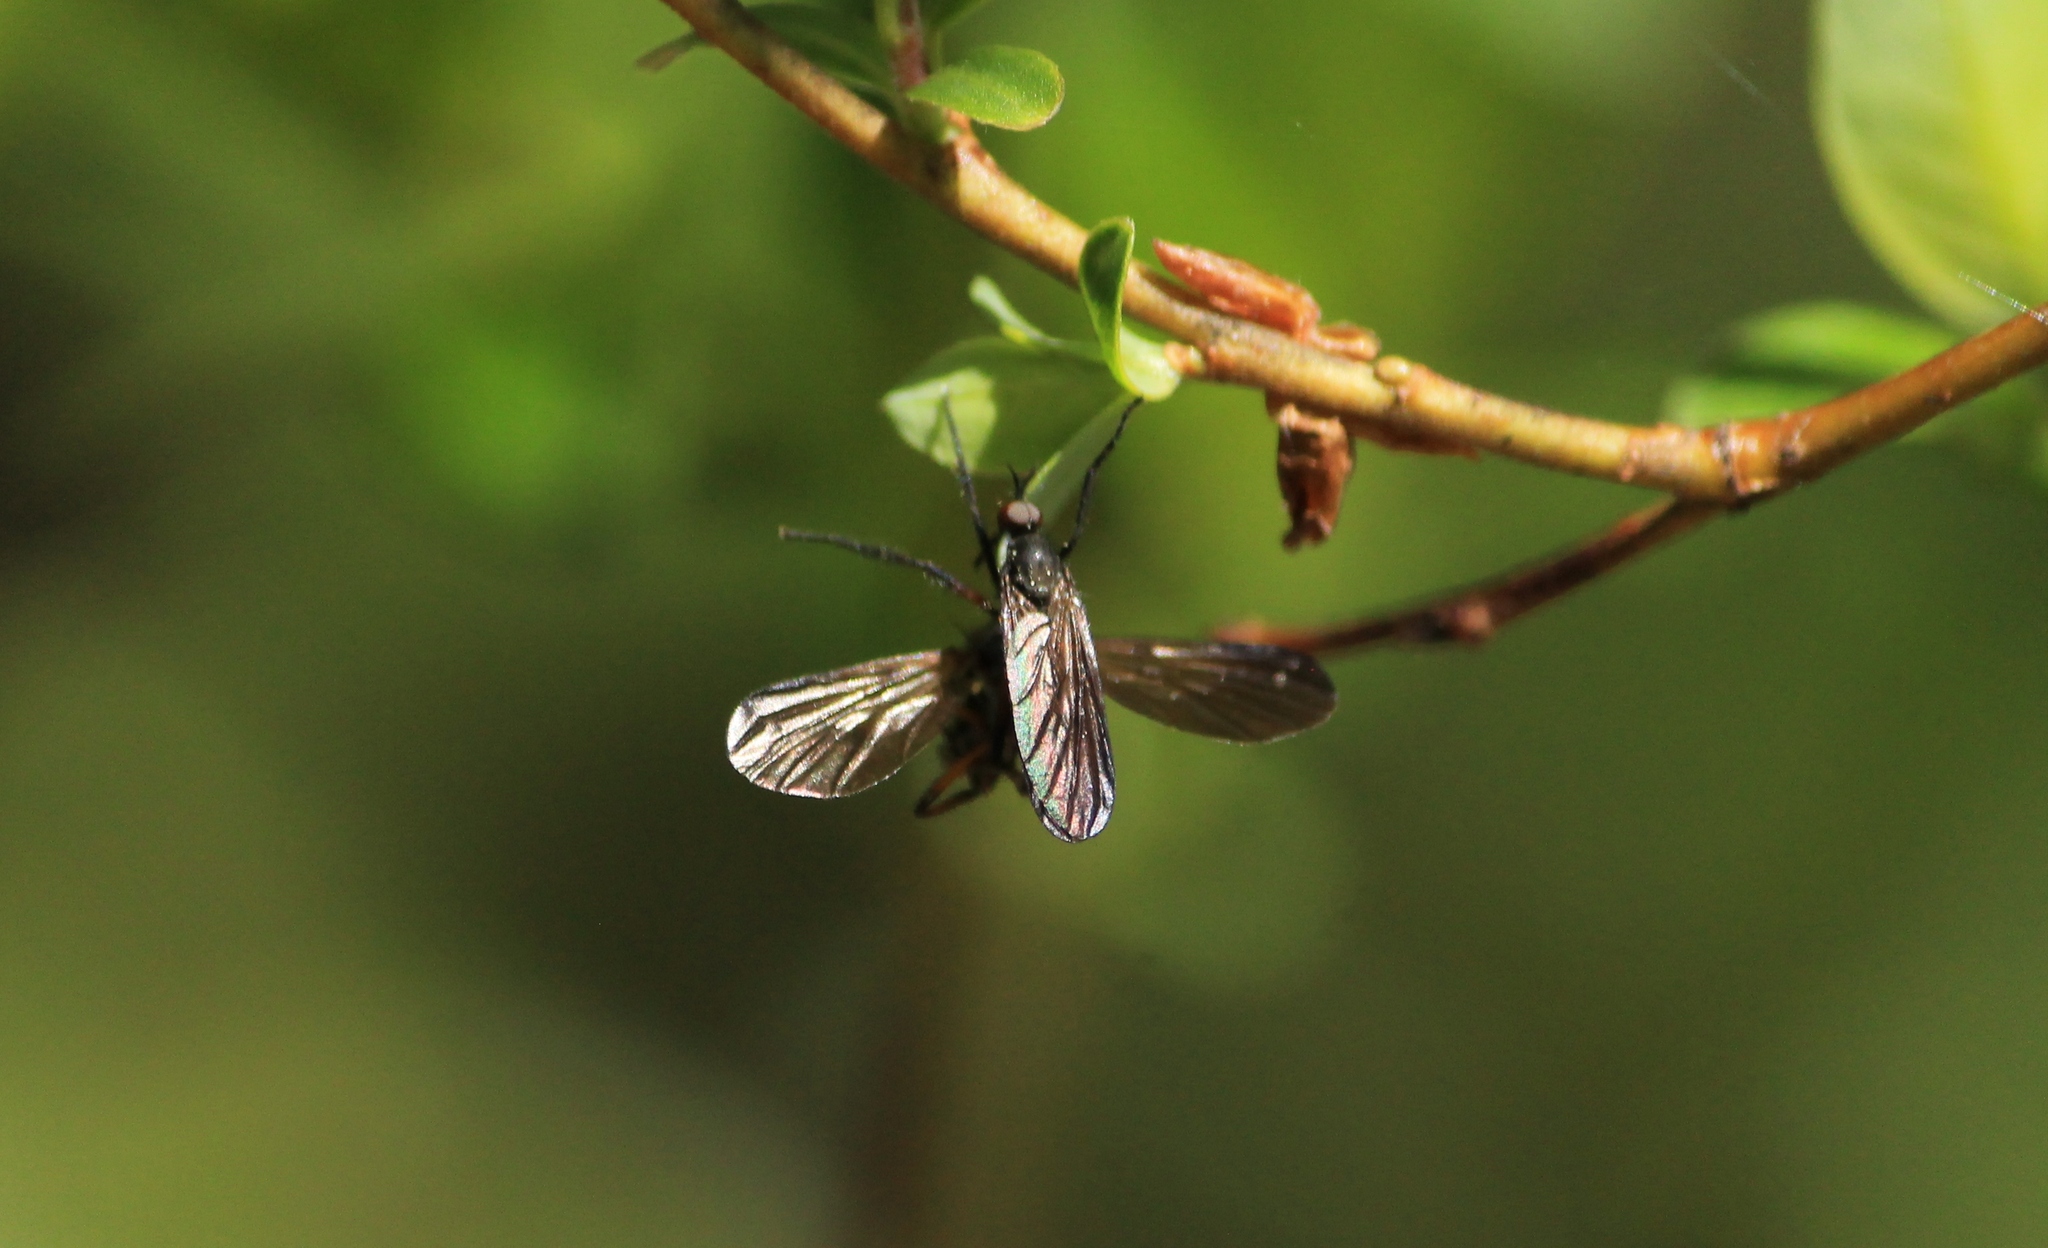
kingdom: Animalia
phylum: Arthropoda
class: Insecta
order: Diptera
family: Empididae
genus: Empis
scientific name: Empis borealis
